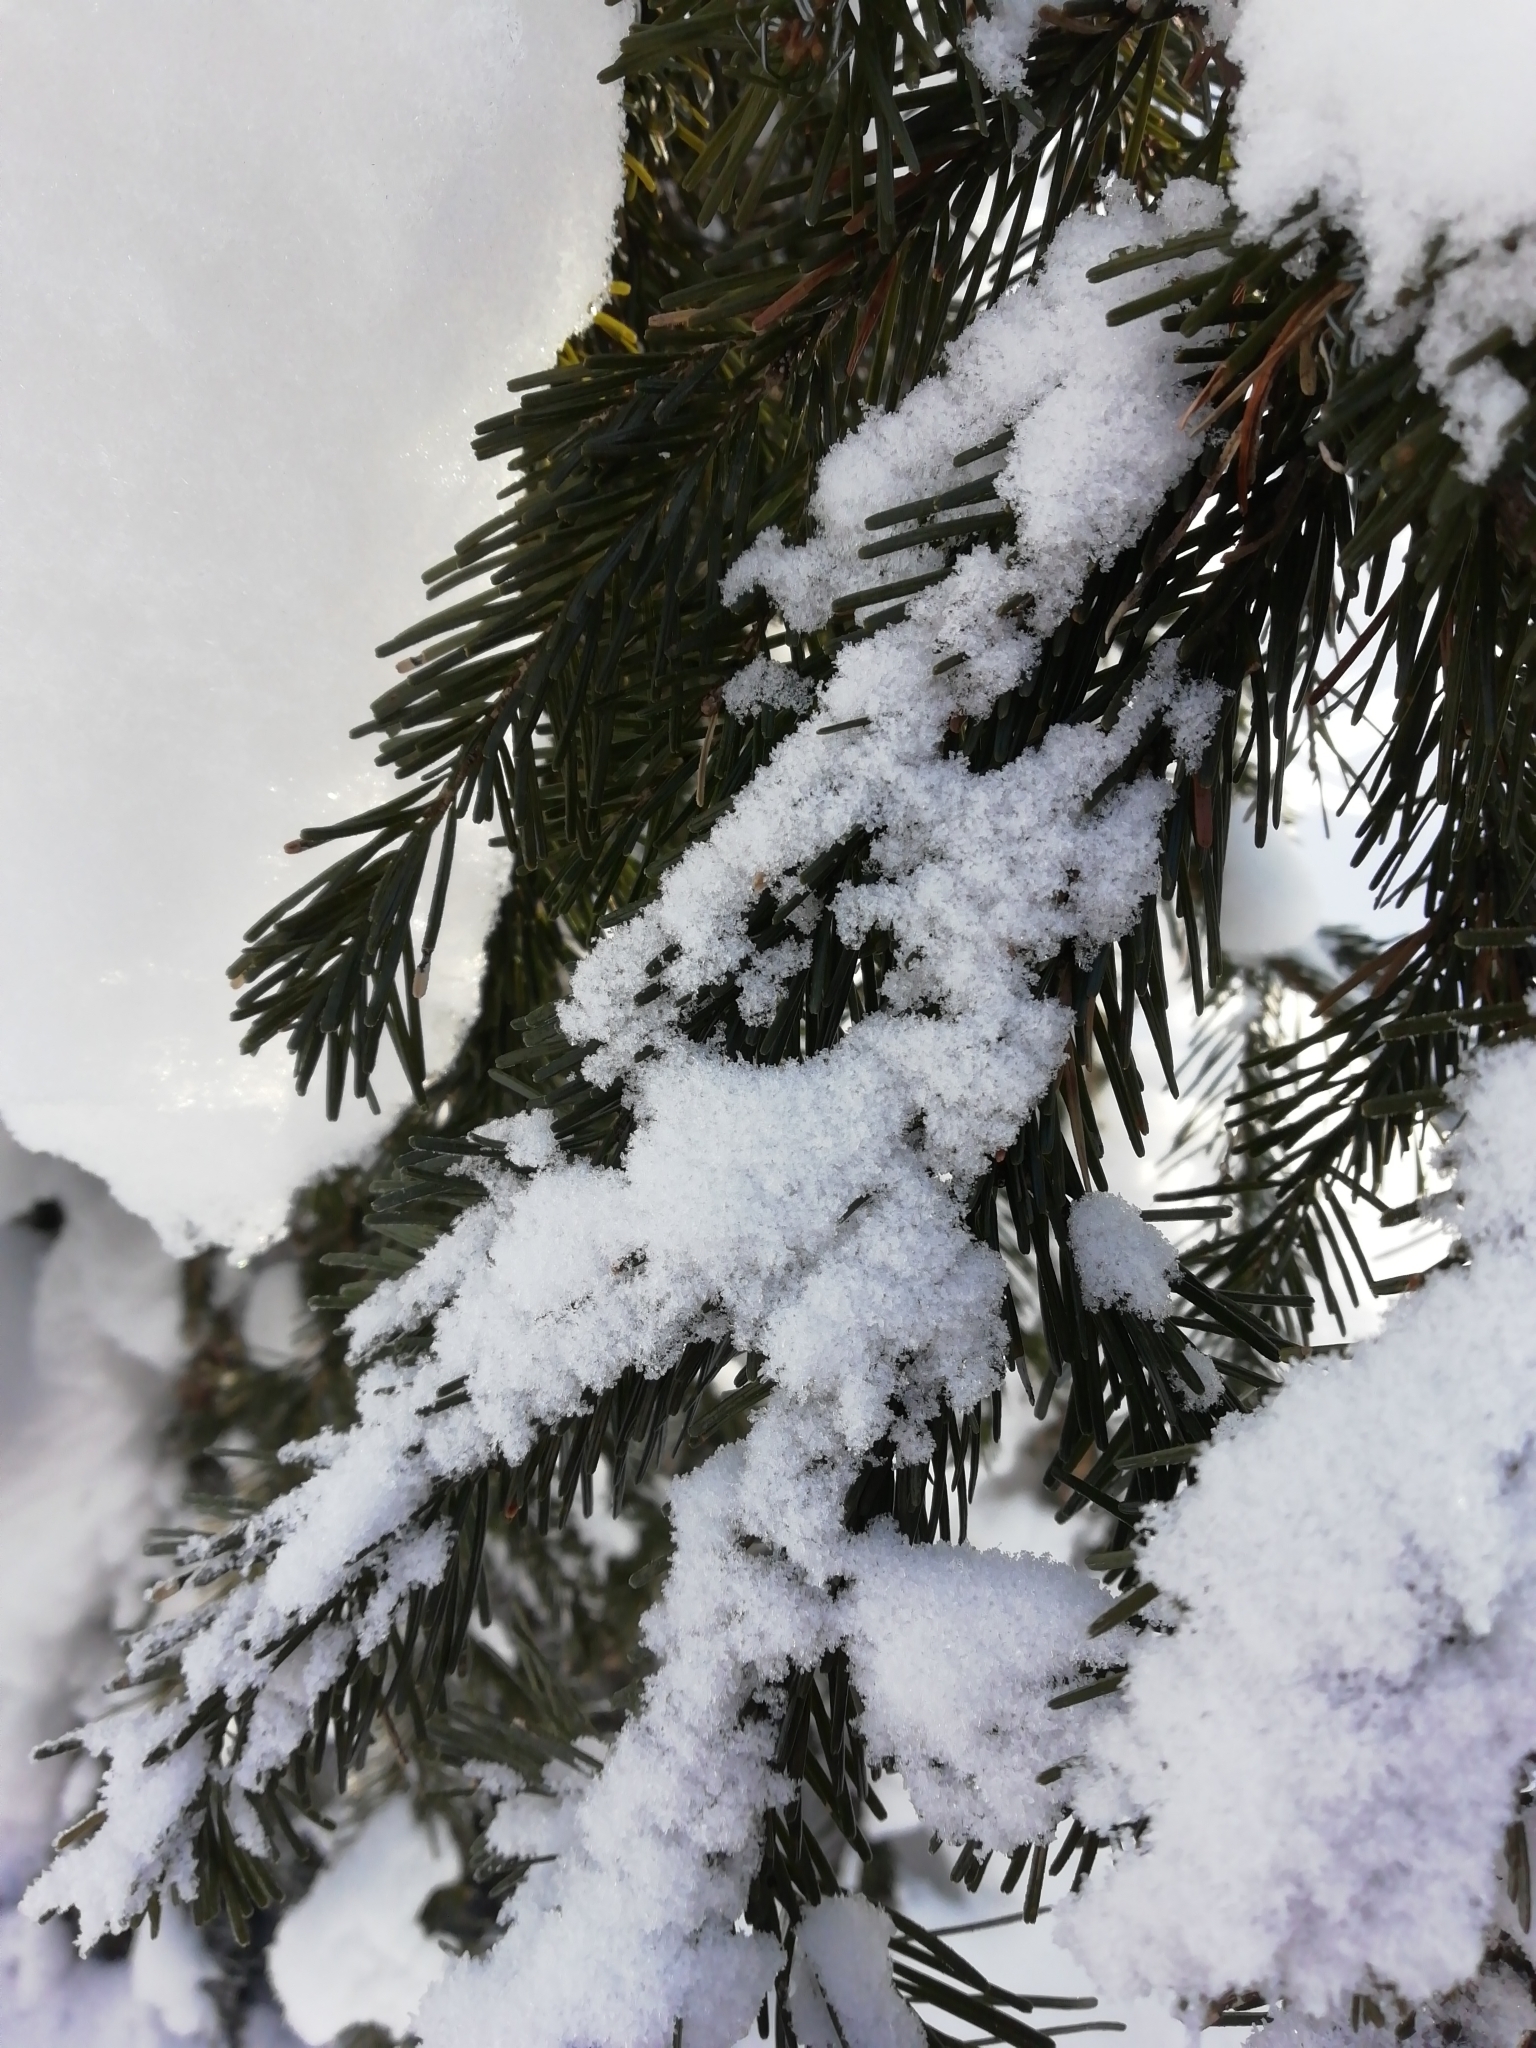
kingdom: Plantae
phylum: Tracheophyta
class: Pinopsida
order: Pinales
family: Pinaceae
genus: Abies
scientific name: Abies sibirica
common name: Siberian fir
